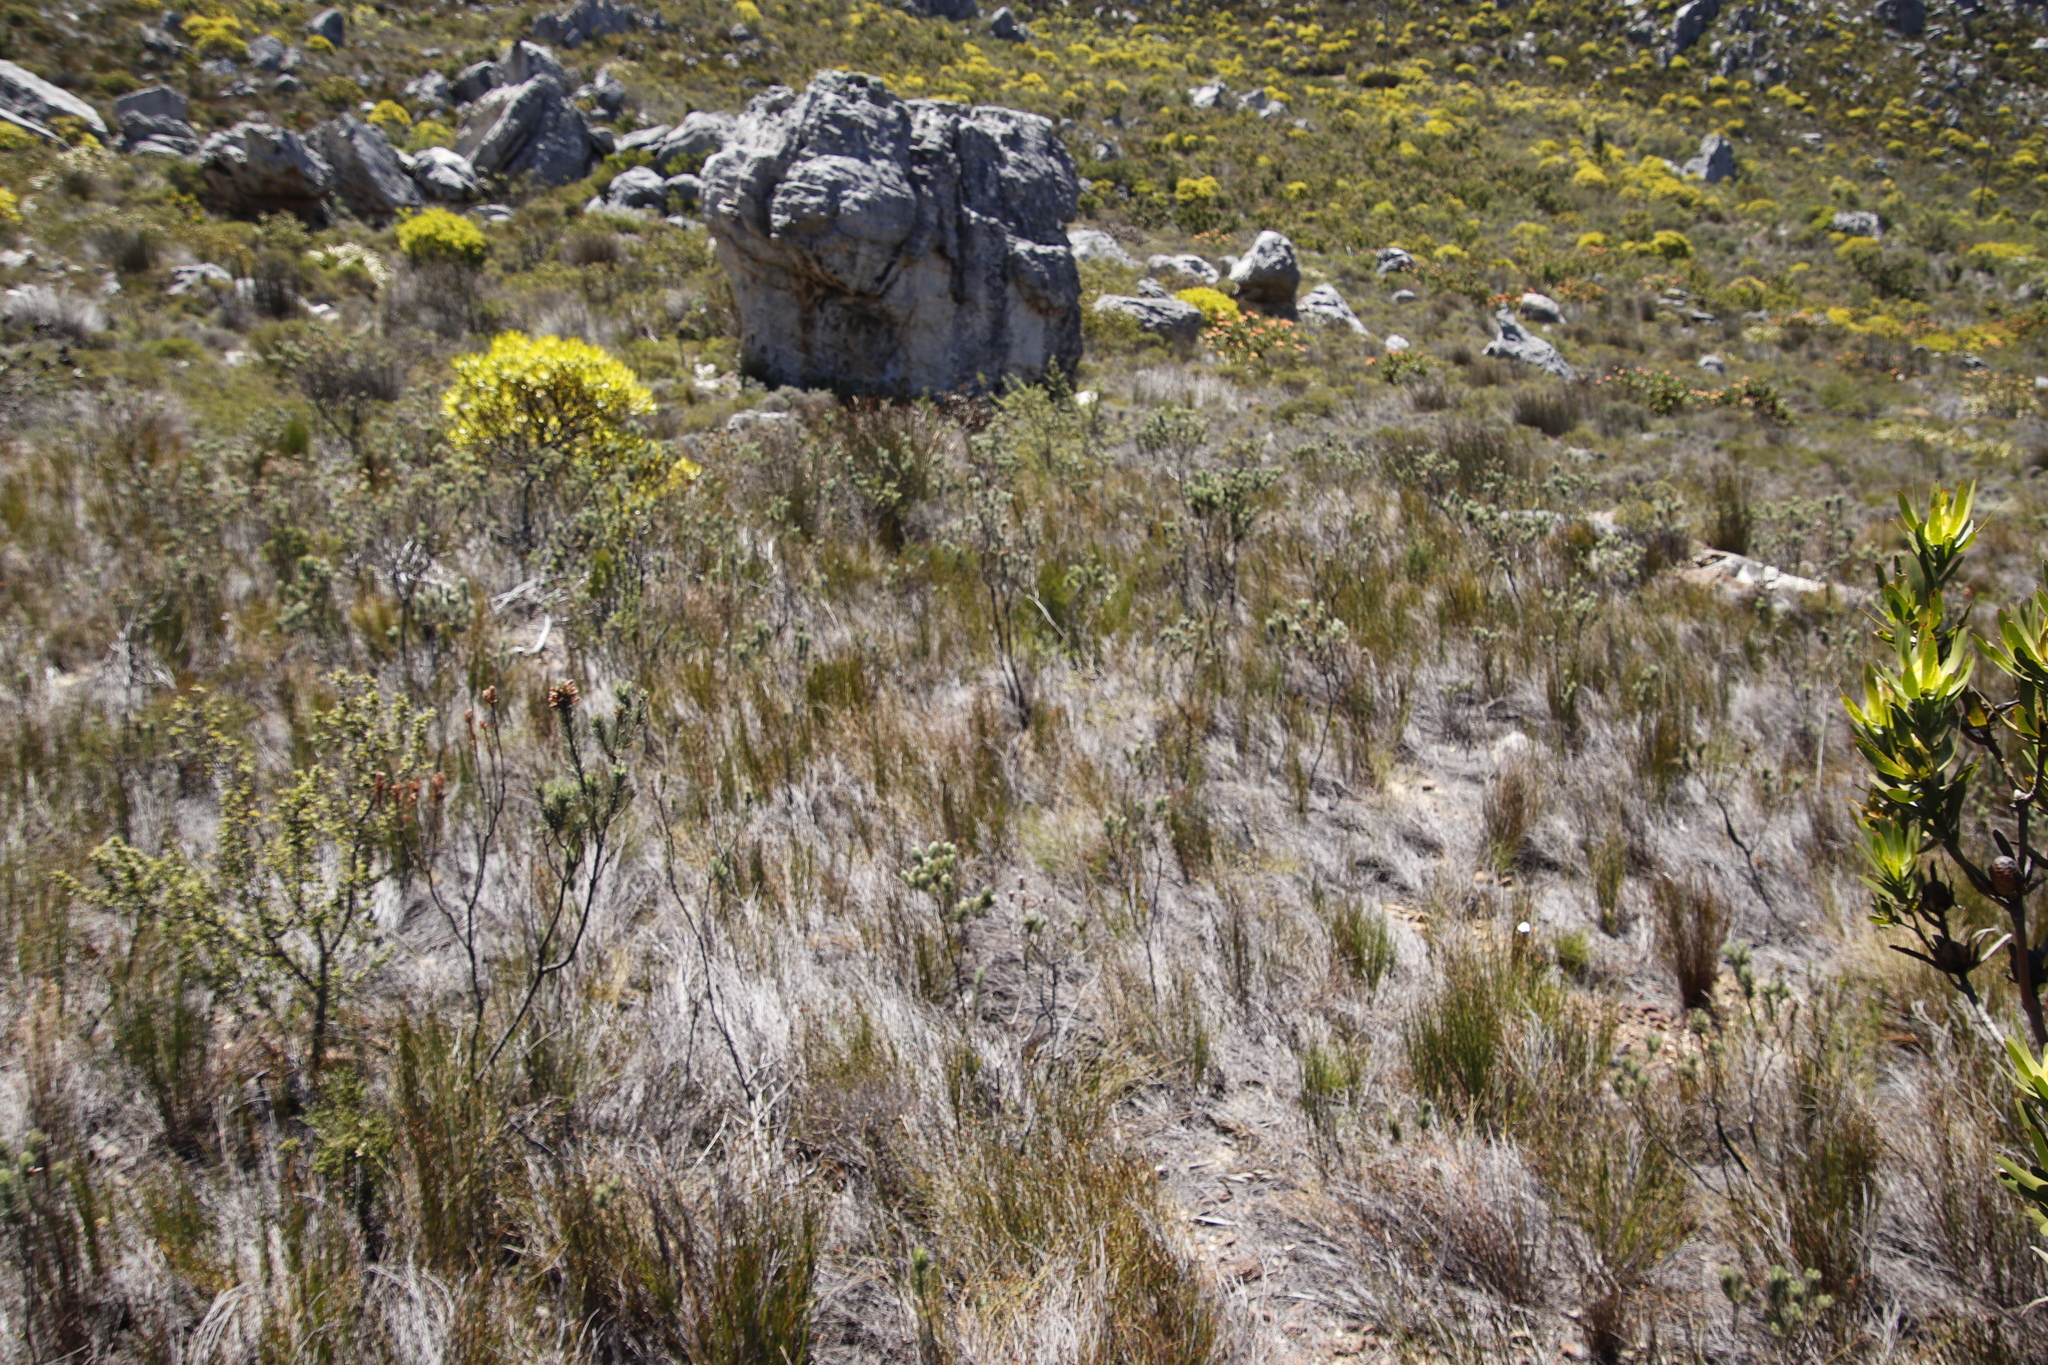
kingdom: Plantae
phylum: Tracheophyta
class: Magnoliopsida
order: Ericales
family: Ericaceae
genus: Erica
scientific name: Erica viscaria
